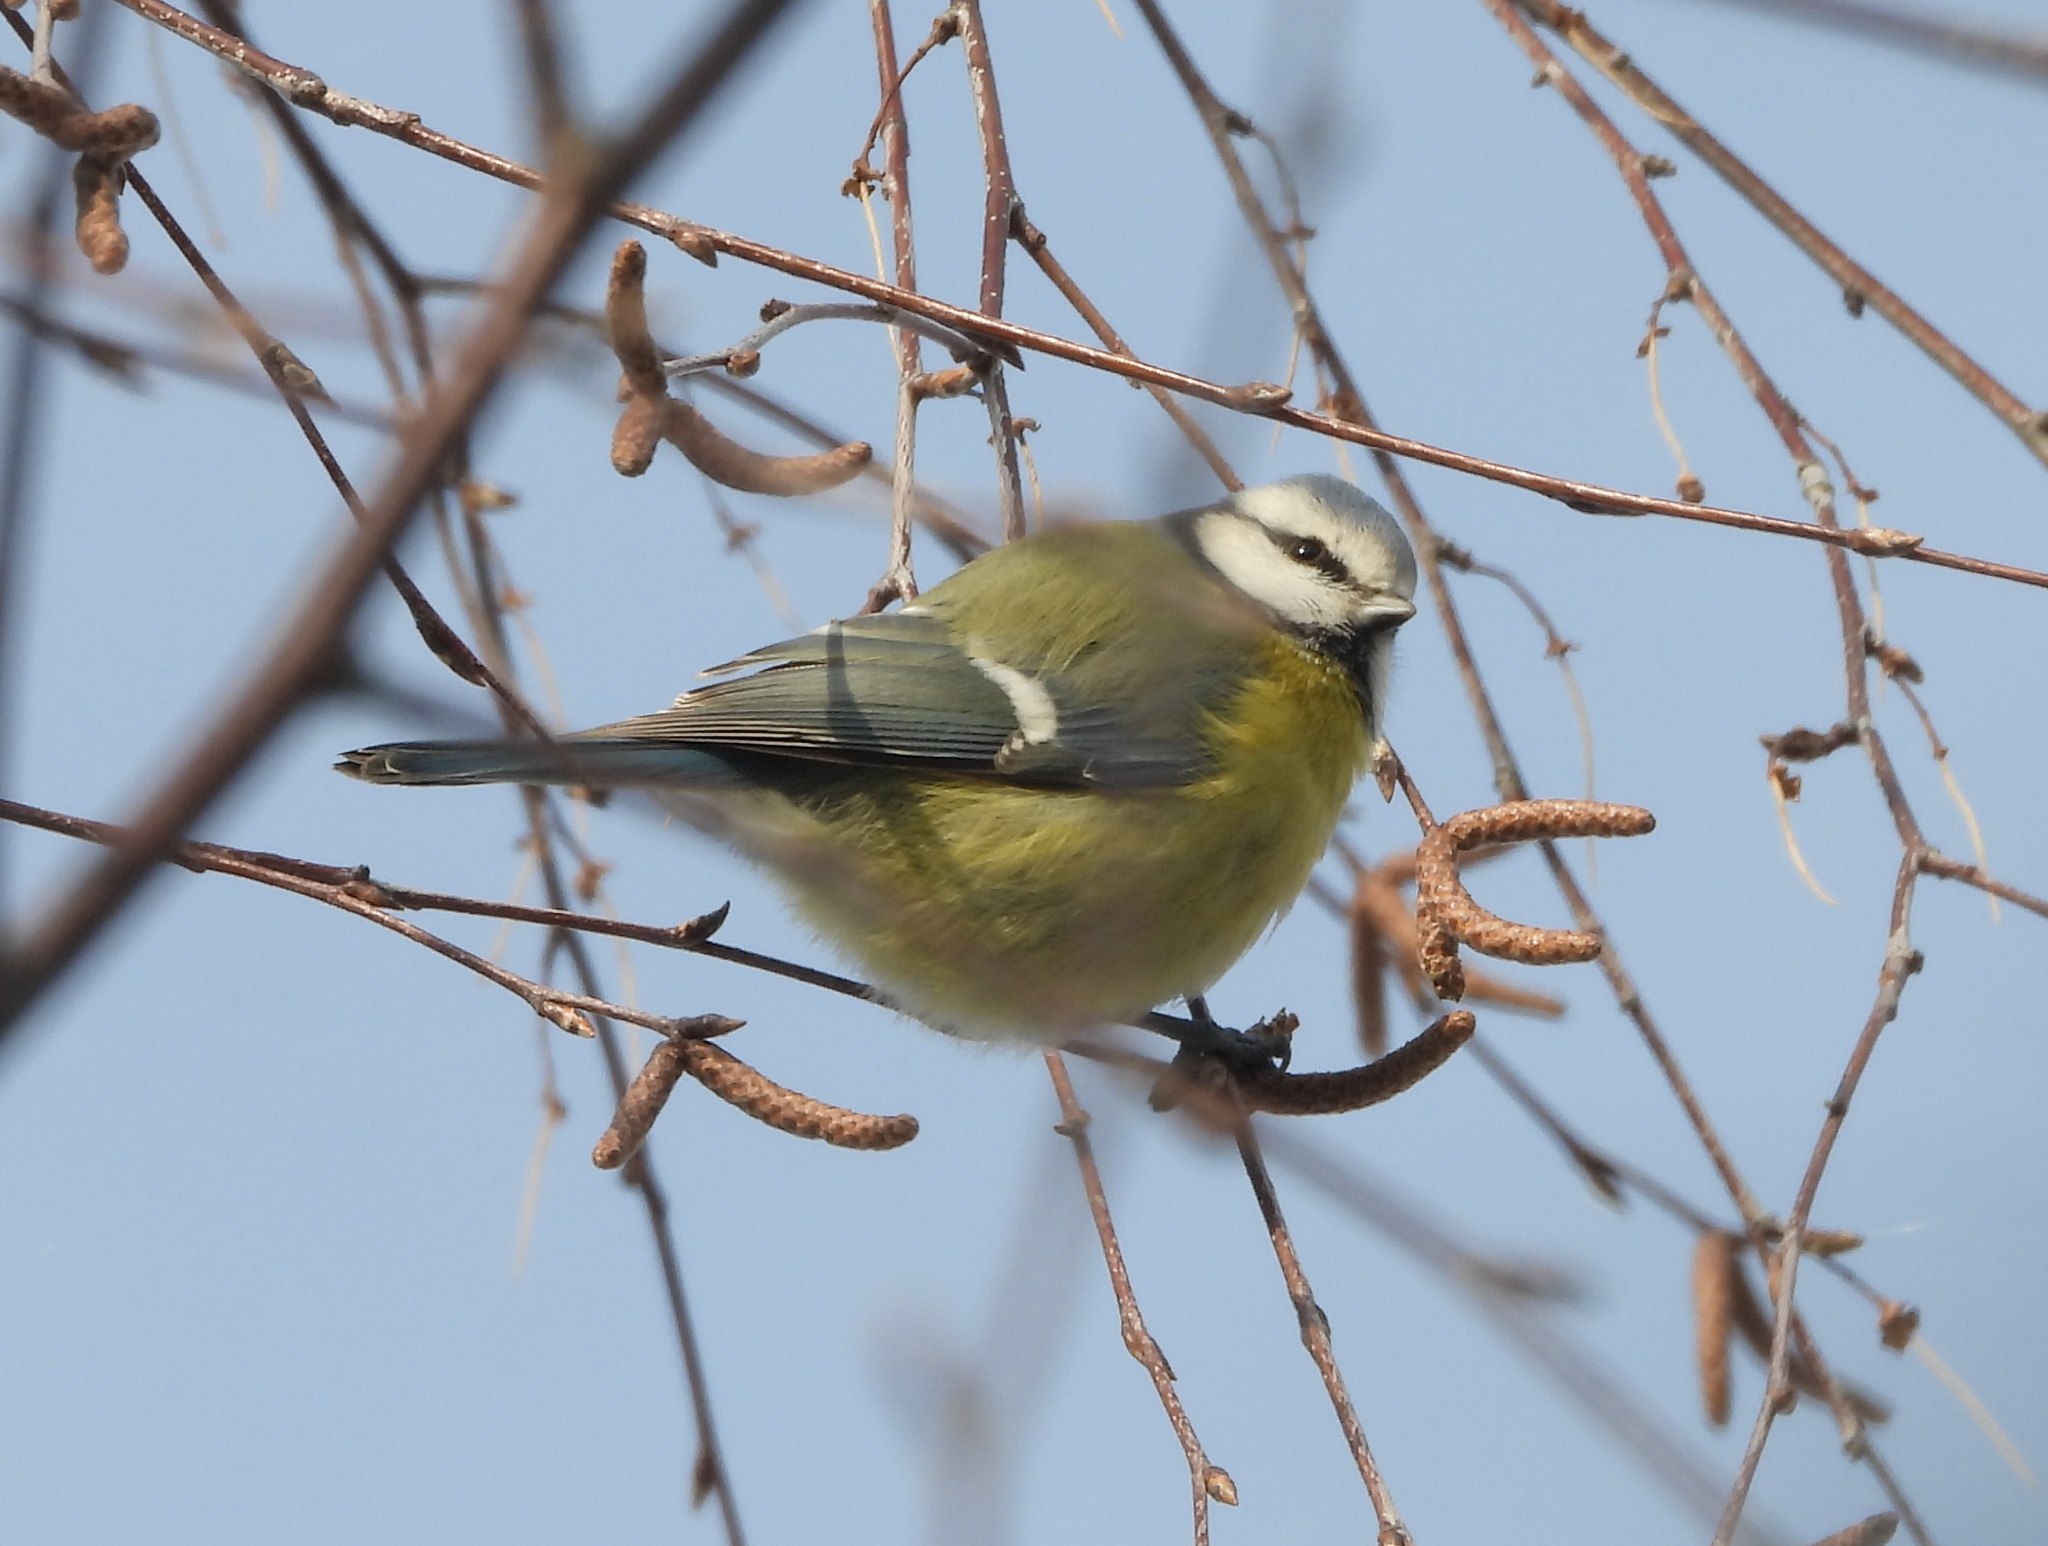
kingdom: Animalia
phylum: Chordata
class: Aves
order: Passeriformes
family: Paridae
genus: Cyanistes
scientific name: Cyanistes caeruleus
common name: Eurasian blue tit
